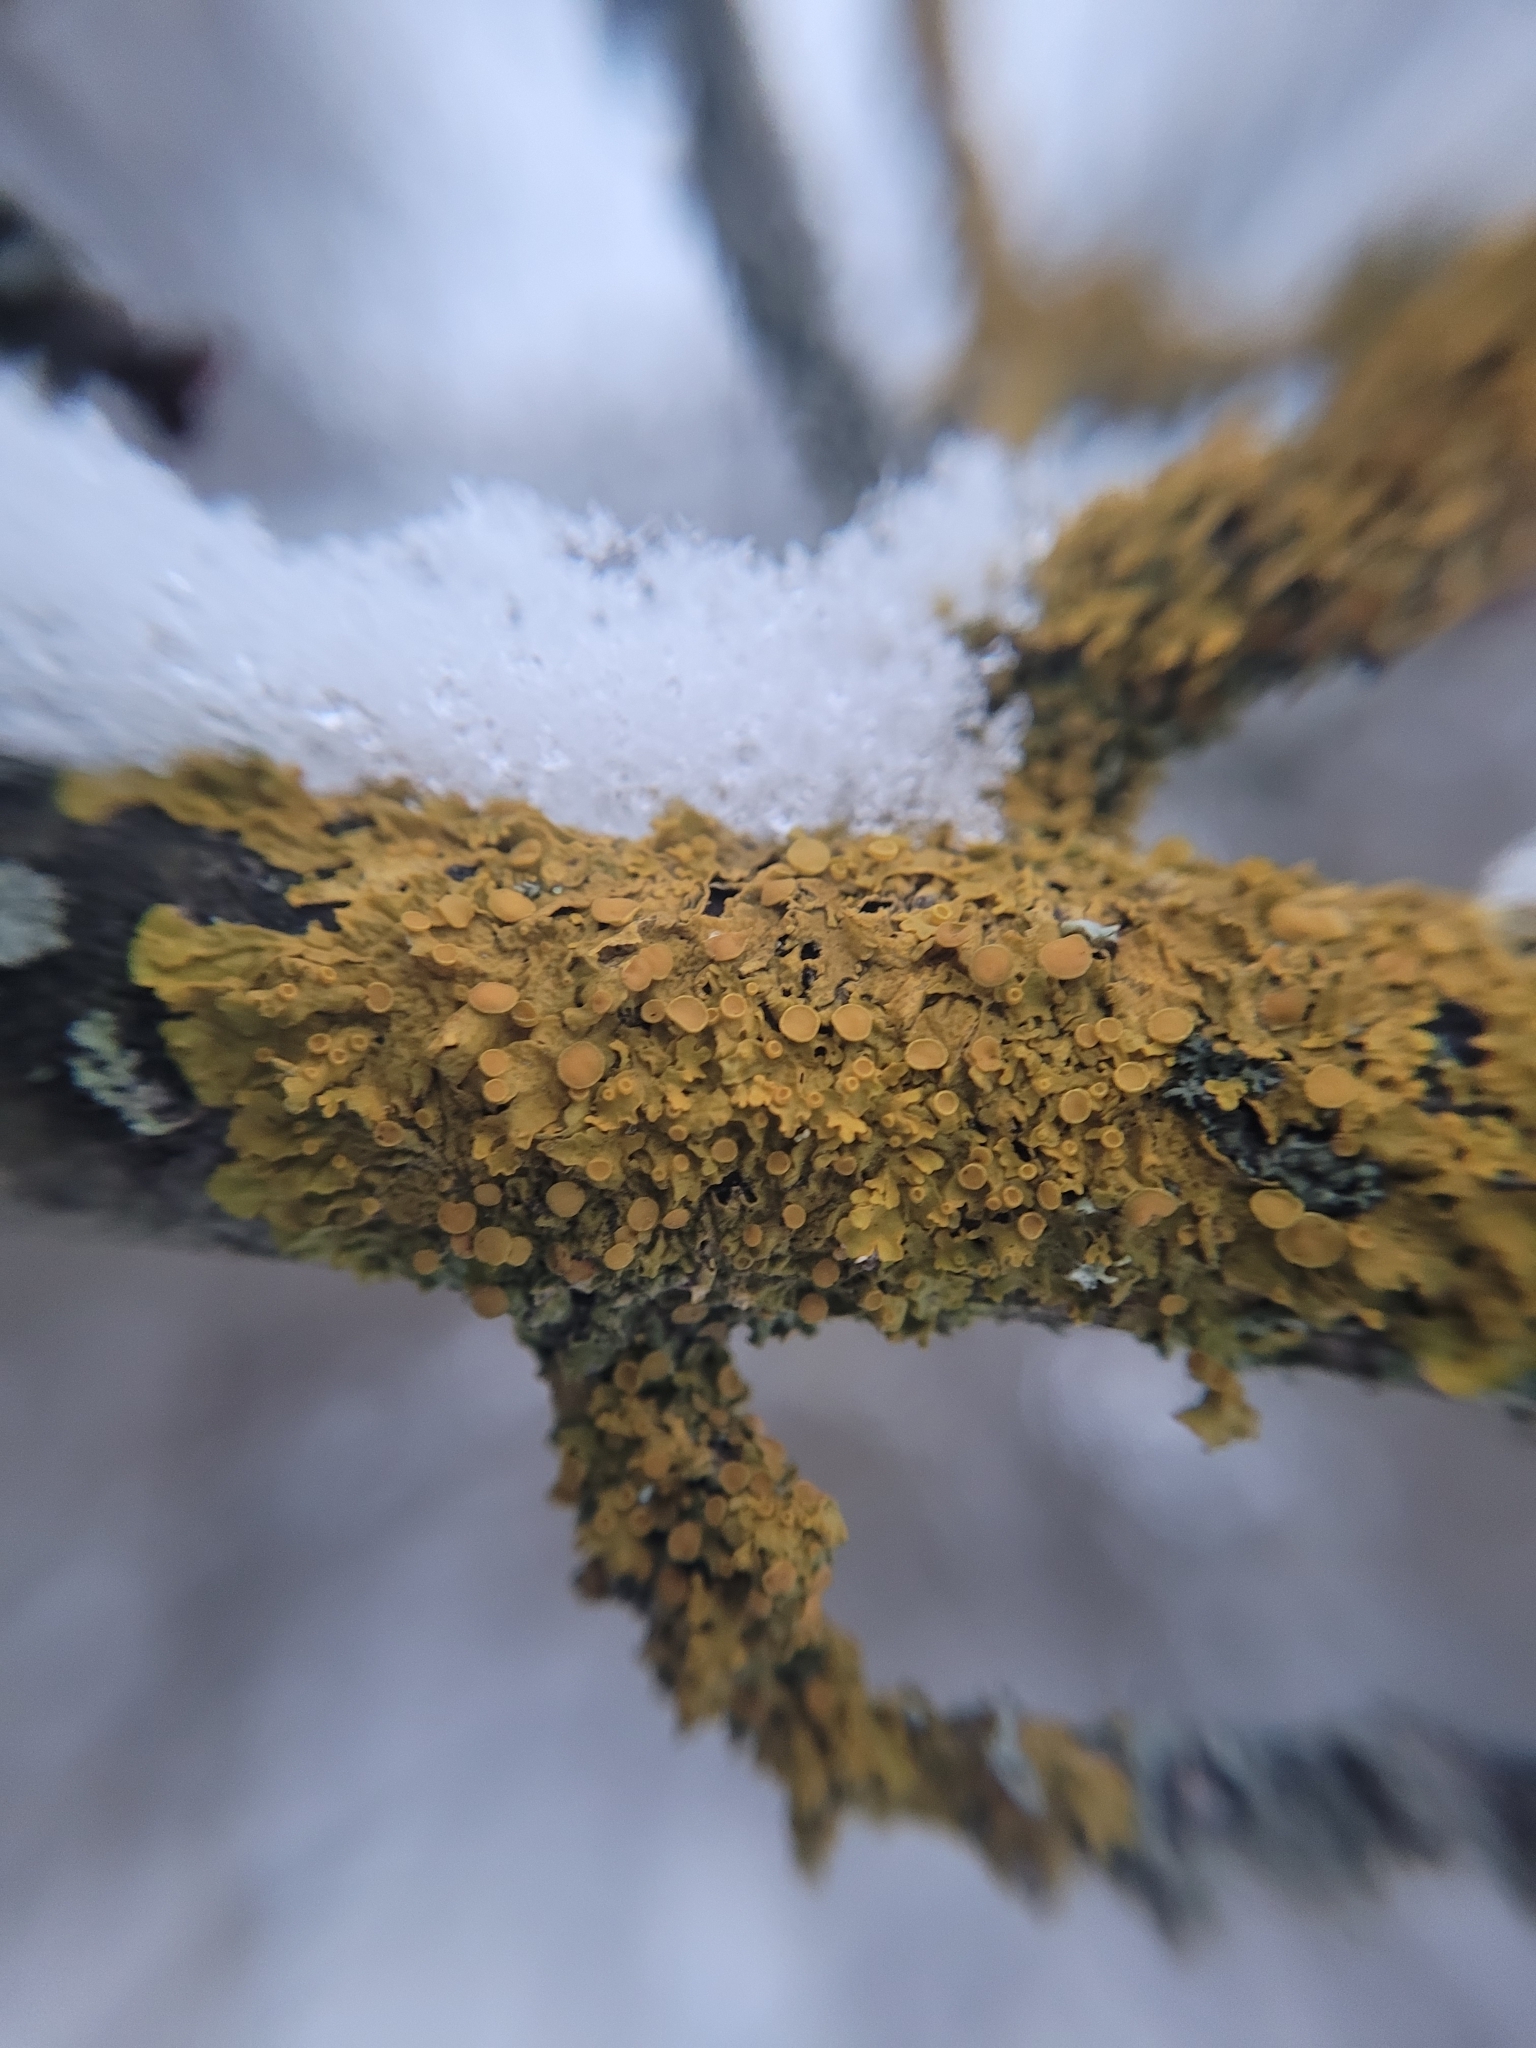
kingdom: Fungi
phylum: Ascomycota
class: Lecanoromycetes
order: Teloschistales
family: Teloschistaceae
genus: Xanthoria
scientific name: Xanthoria parietina
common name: Common orange lichen
